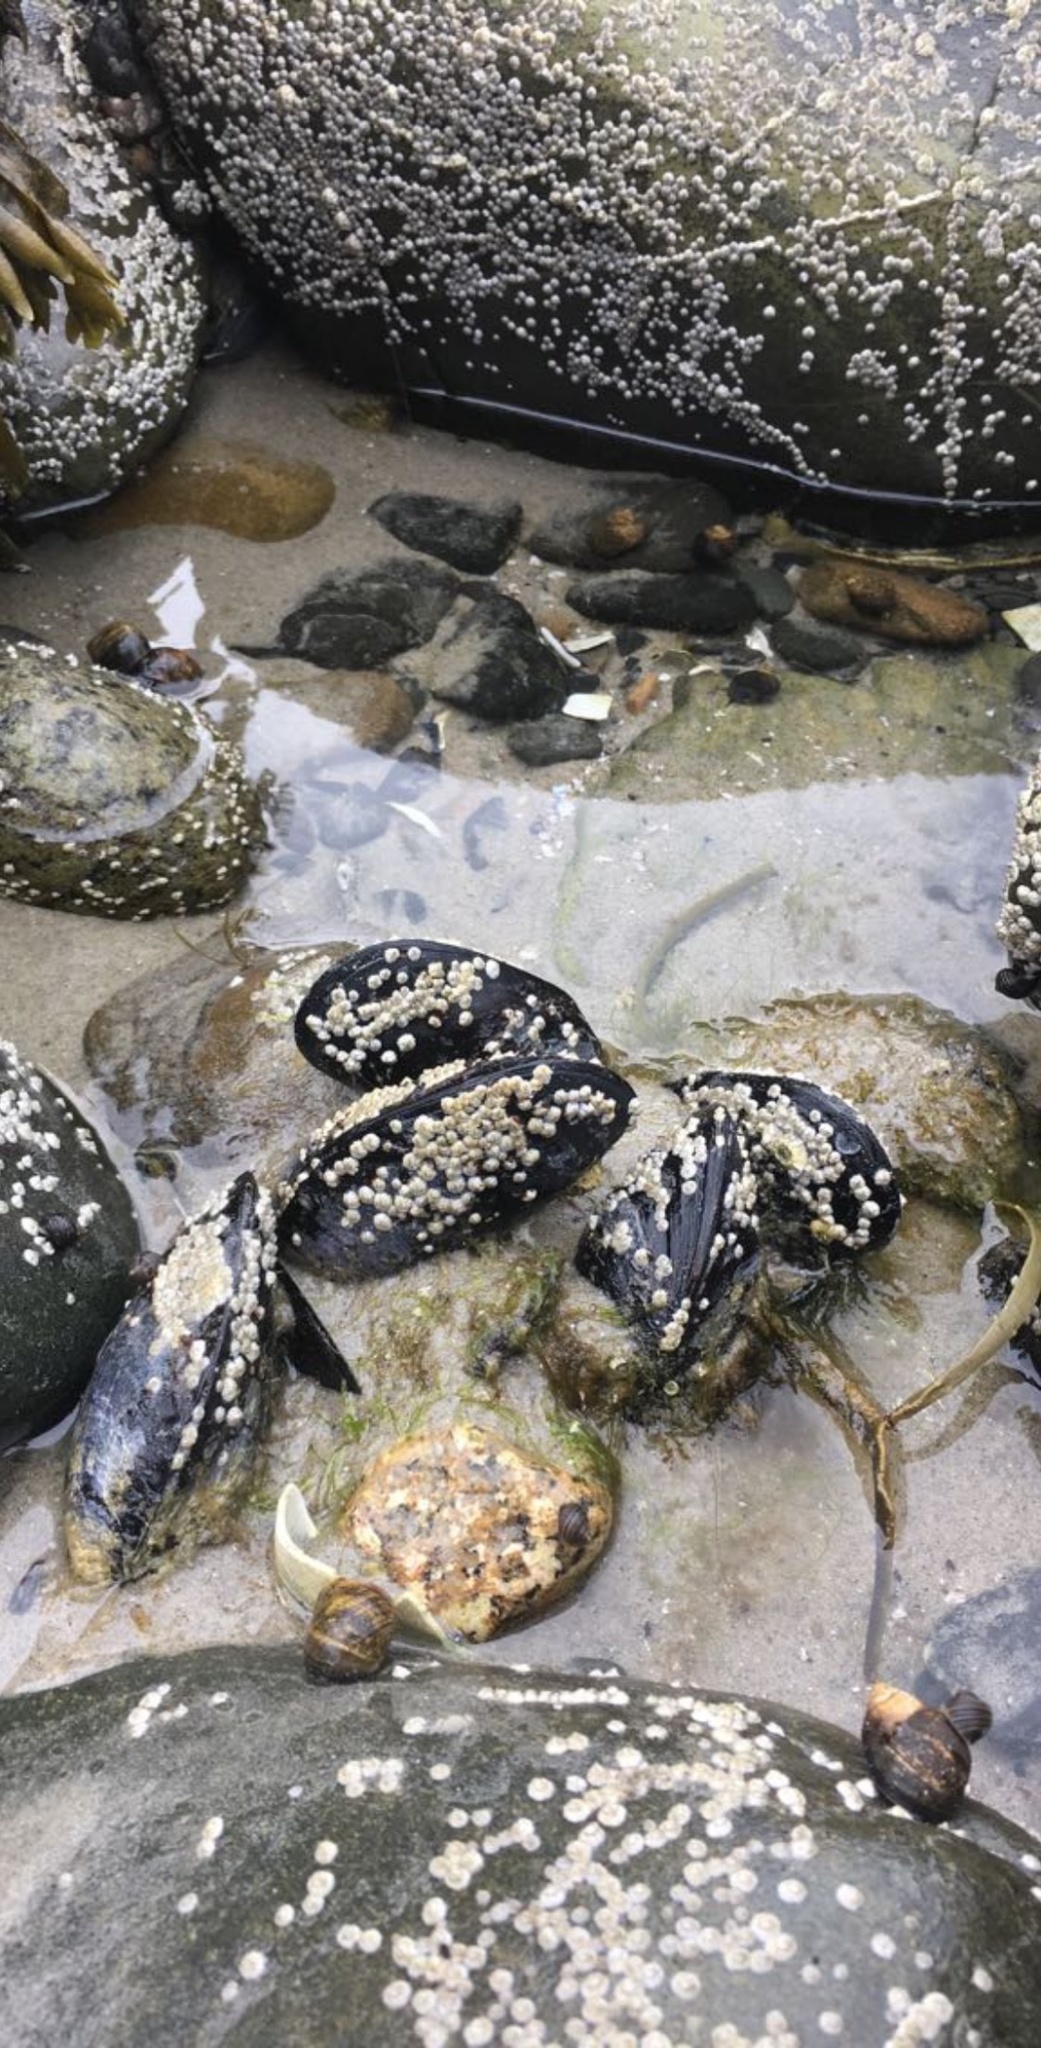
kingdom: Animalia
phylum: Mollusca
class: Bivalvia
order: Mytilida
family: Mytilidae
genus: Mytilus
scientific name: Mytilus edulis
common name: Blue mussel
